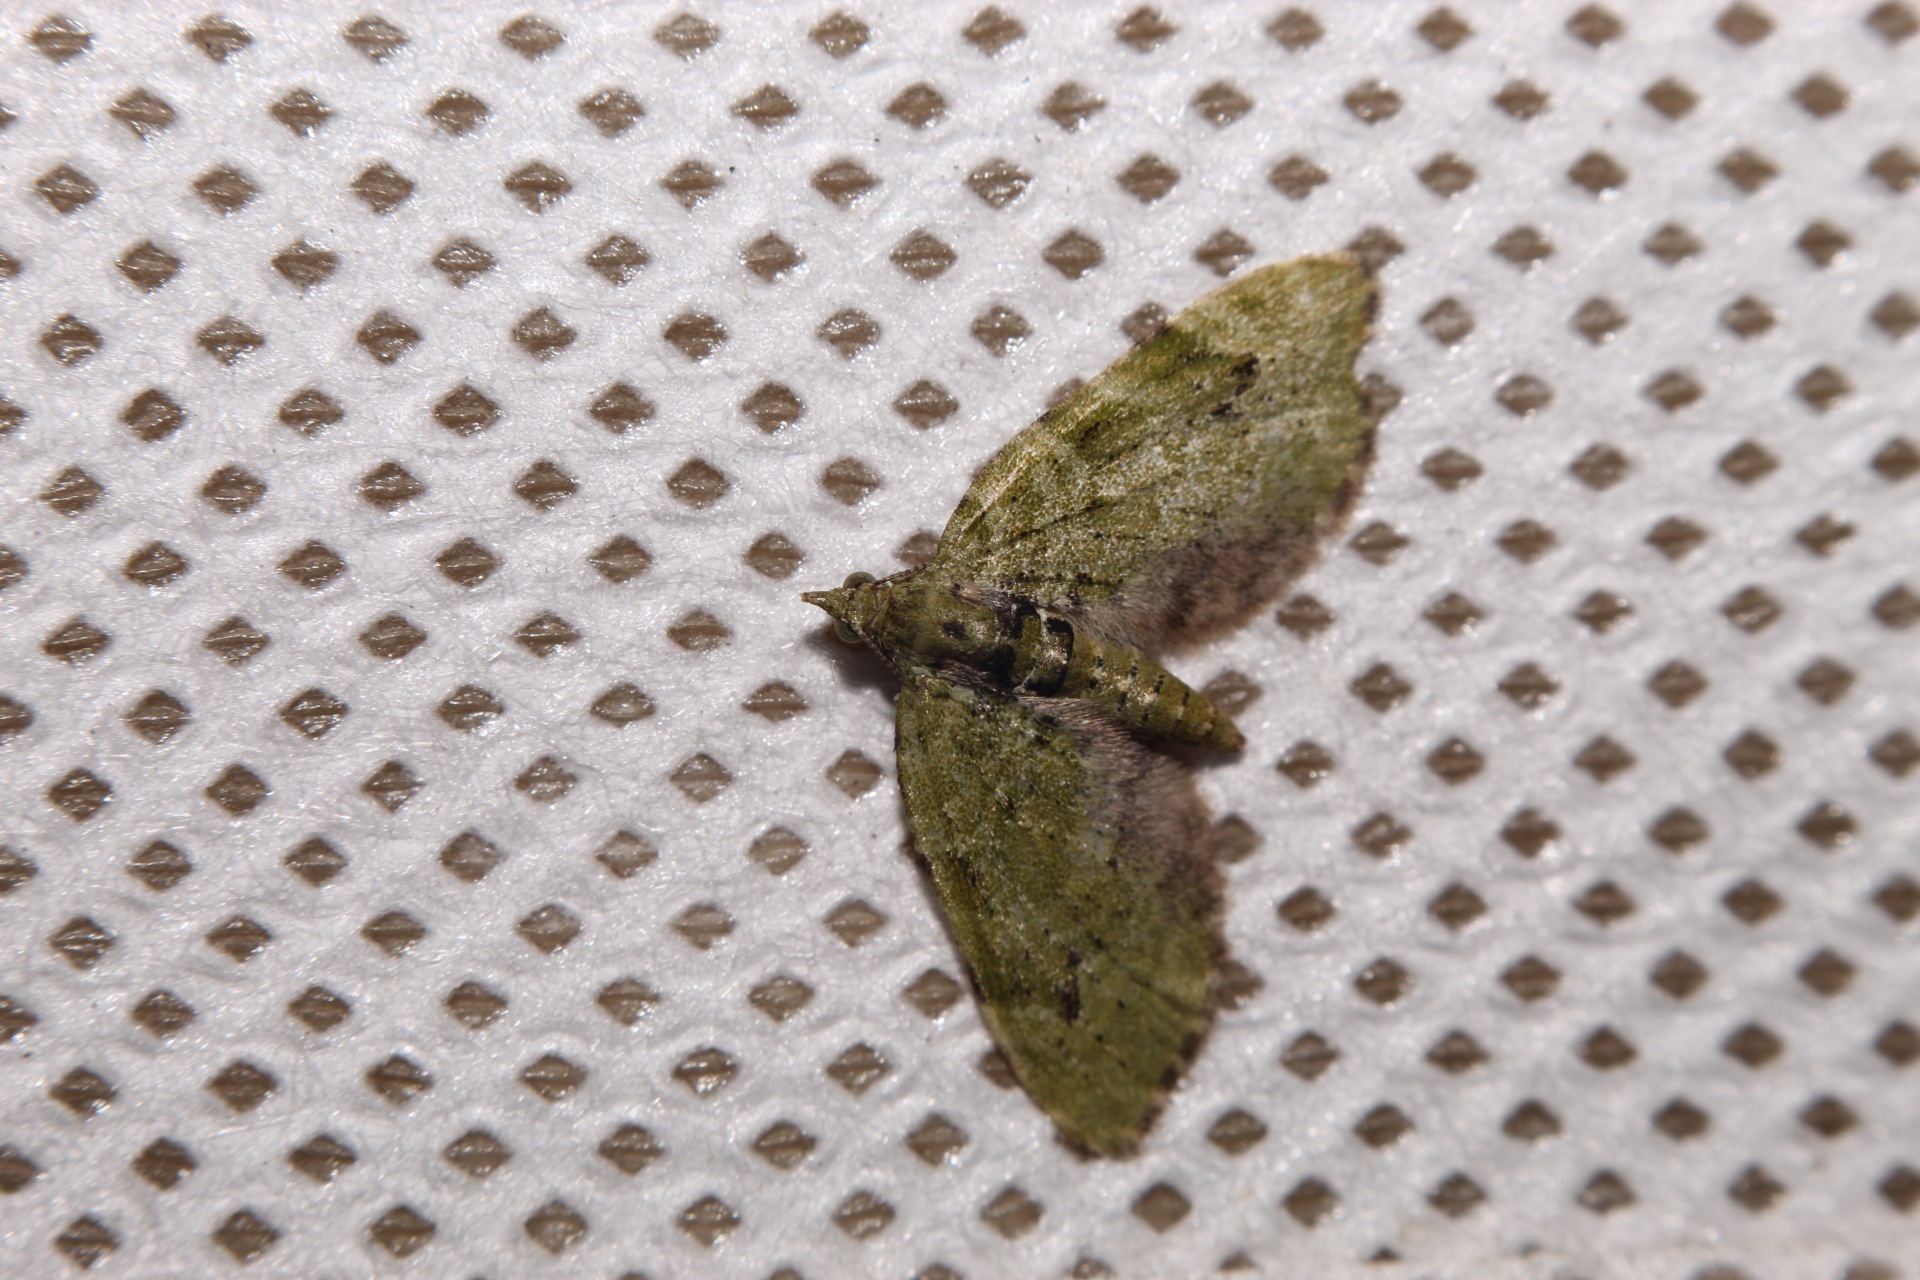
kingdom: Animalia
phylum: Arthropoda
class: Insecta
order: Lepidoptera
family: Geometridae
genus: Chloroclystis
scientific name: Chloroclystis v-ata
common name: V-pug
